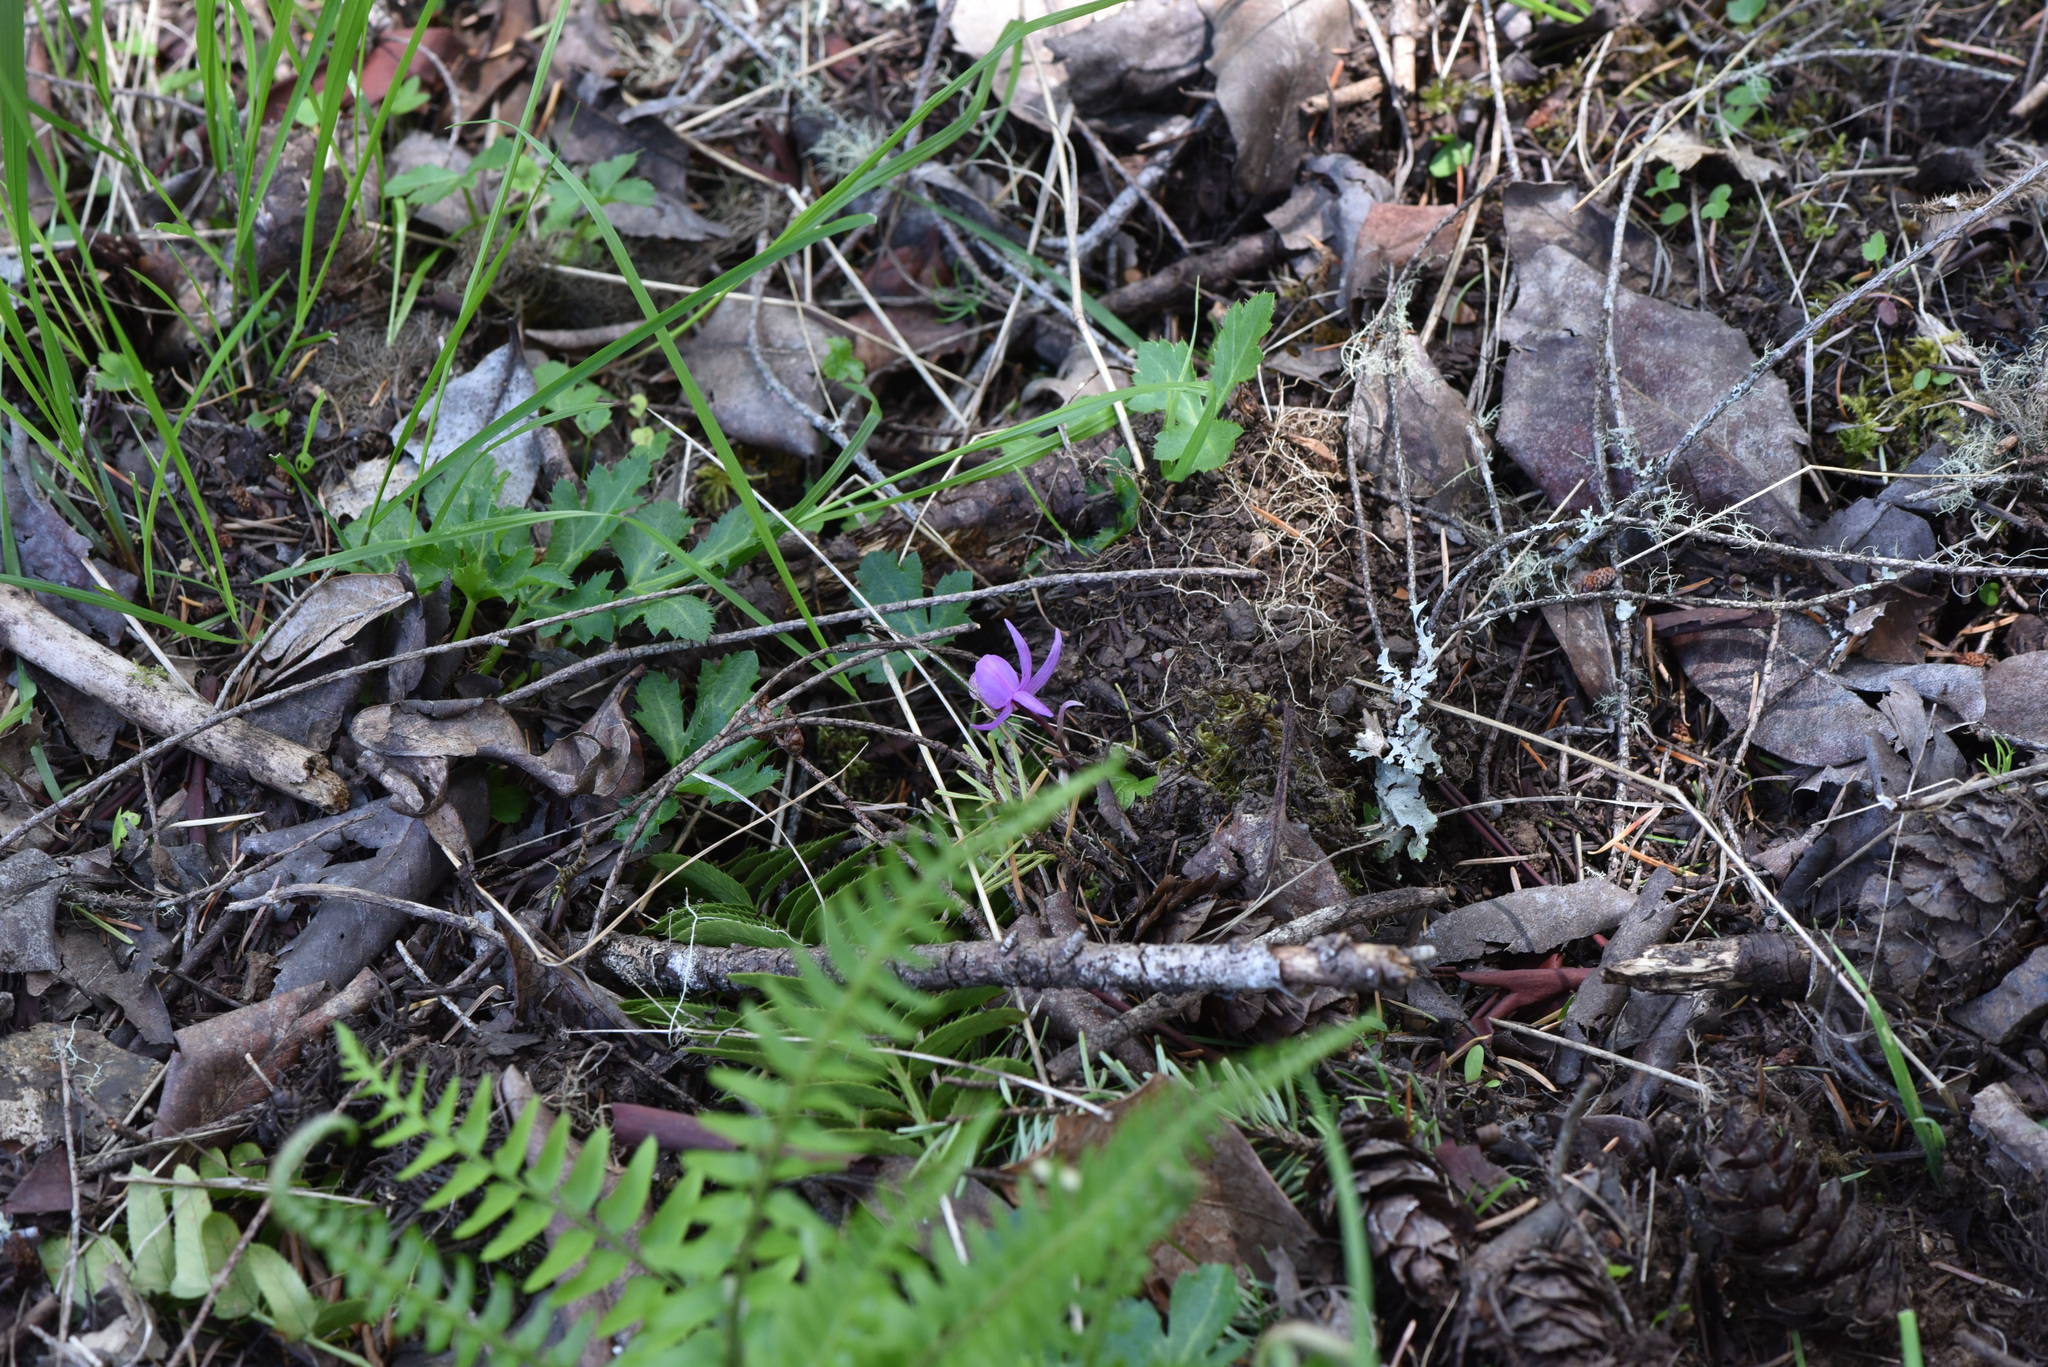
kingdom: Plantae
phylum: Tracheophyta
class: Liliopsida
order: Asparagales
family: Orchidaceae
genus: Calypso
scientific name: Calypso bulbosa
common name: Calypso
